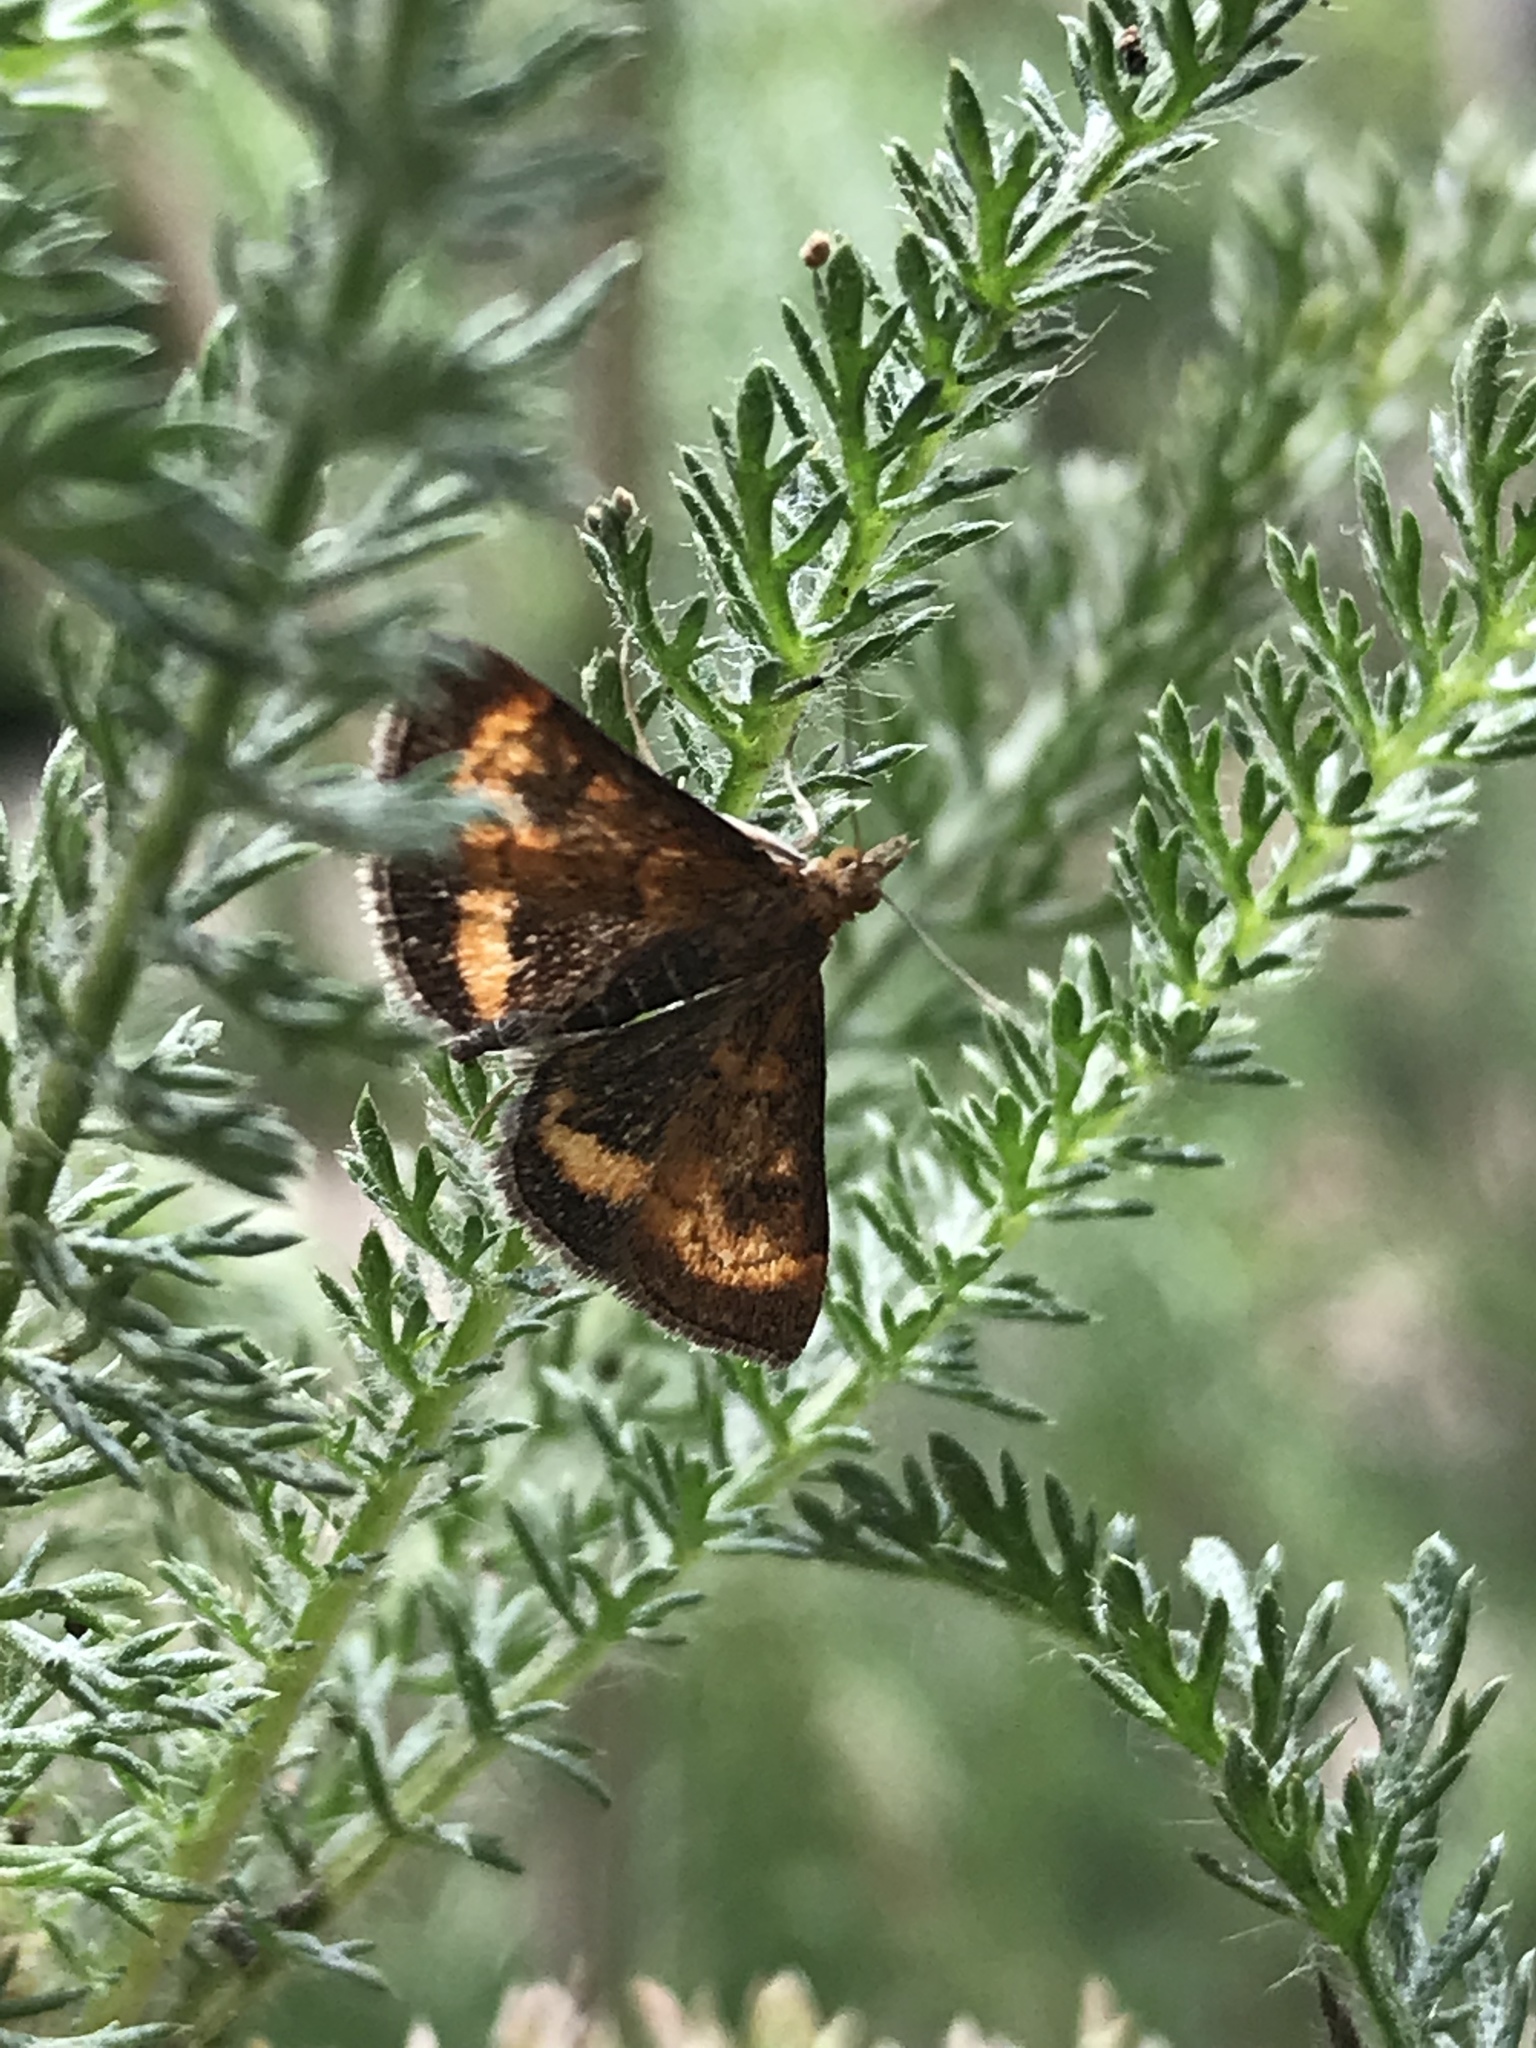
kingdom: Animalia
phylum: Arthropoda
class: Insecta
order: Lepidoptera
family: Crambidae
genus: Pyrausta
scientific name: Pyrausta californicalis
